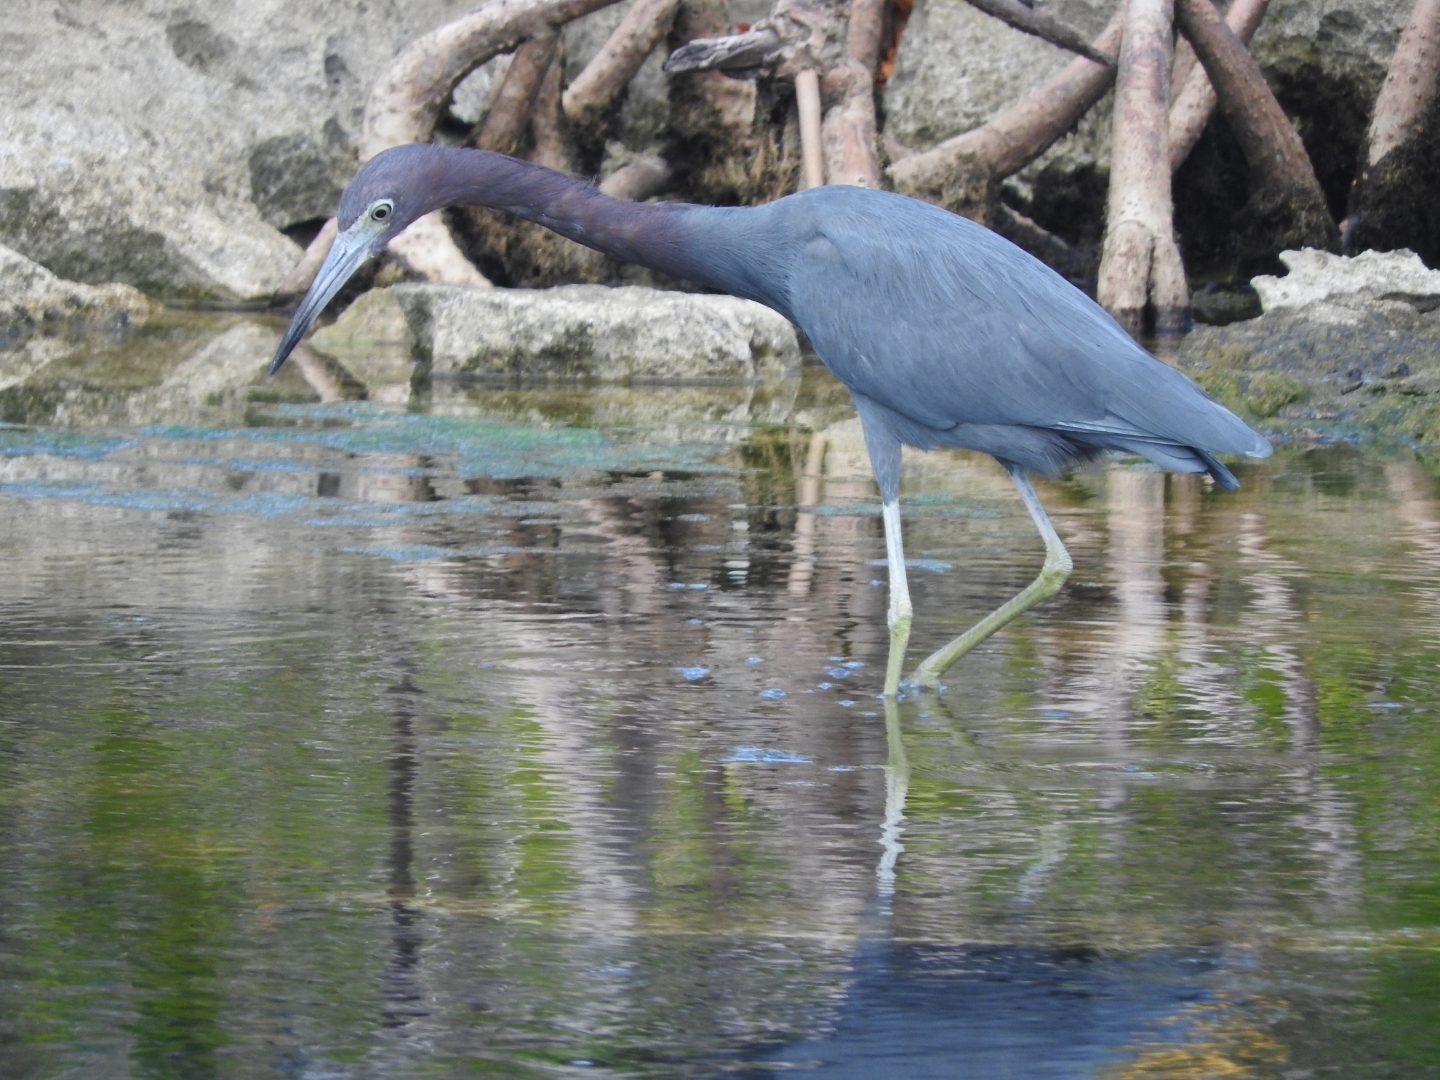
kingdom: Animalia
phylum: Chordata
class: Aves
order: Pelecaniformes
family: Ardeidae
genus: Egretta
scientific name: Egretta caerulea
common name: Little blue heron
